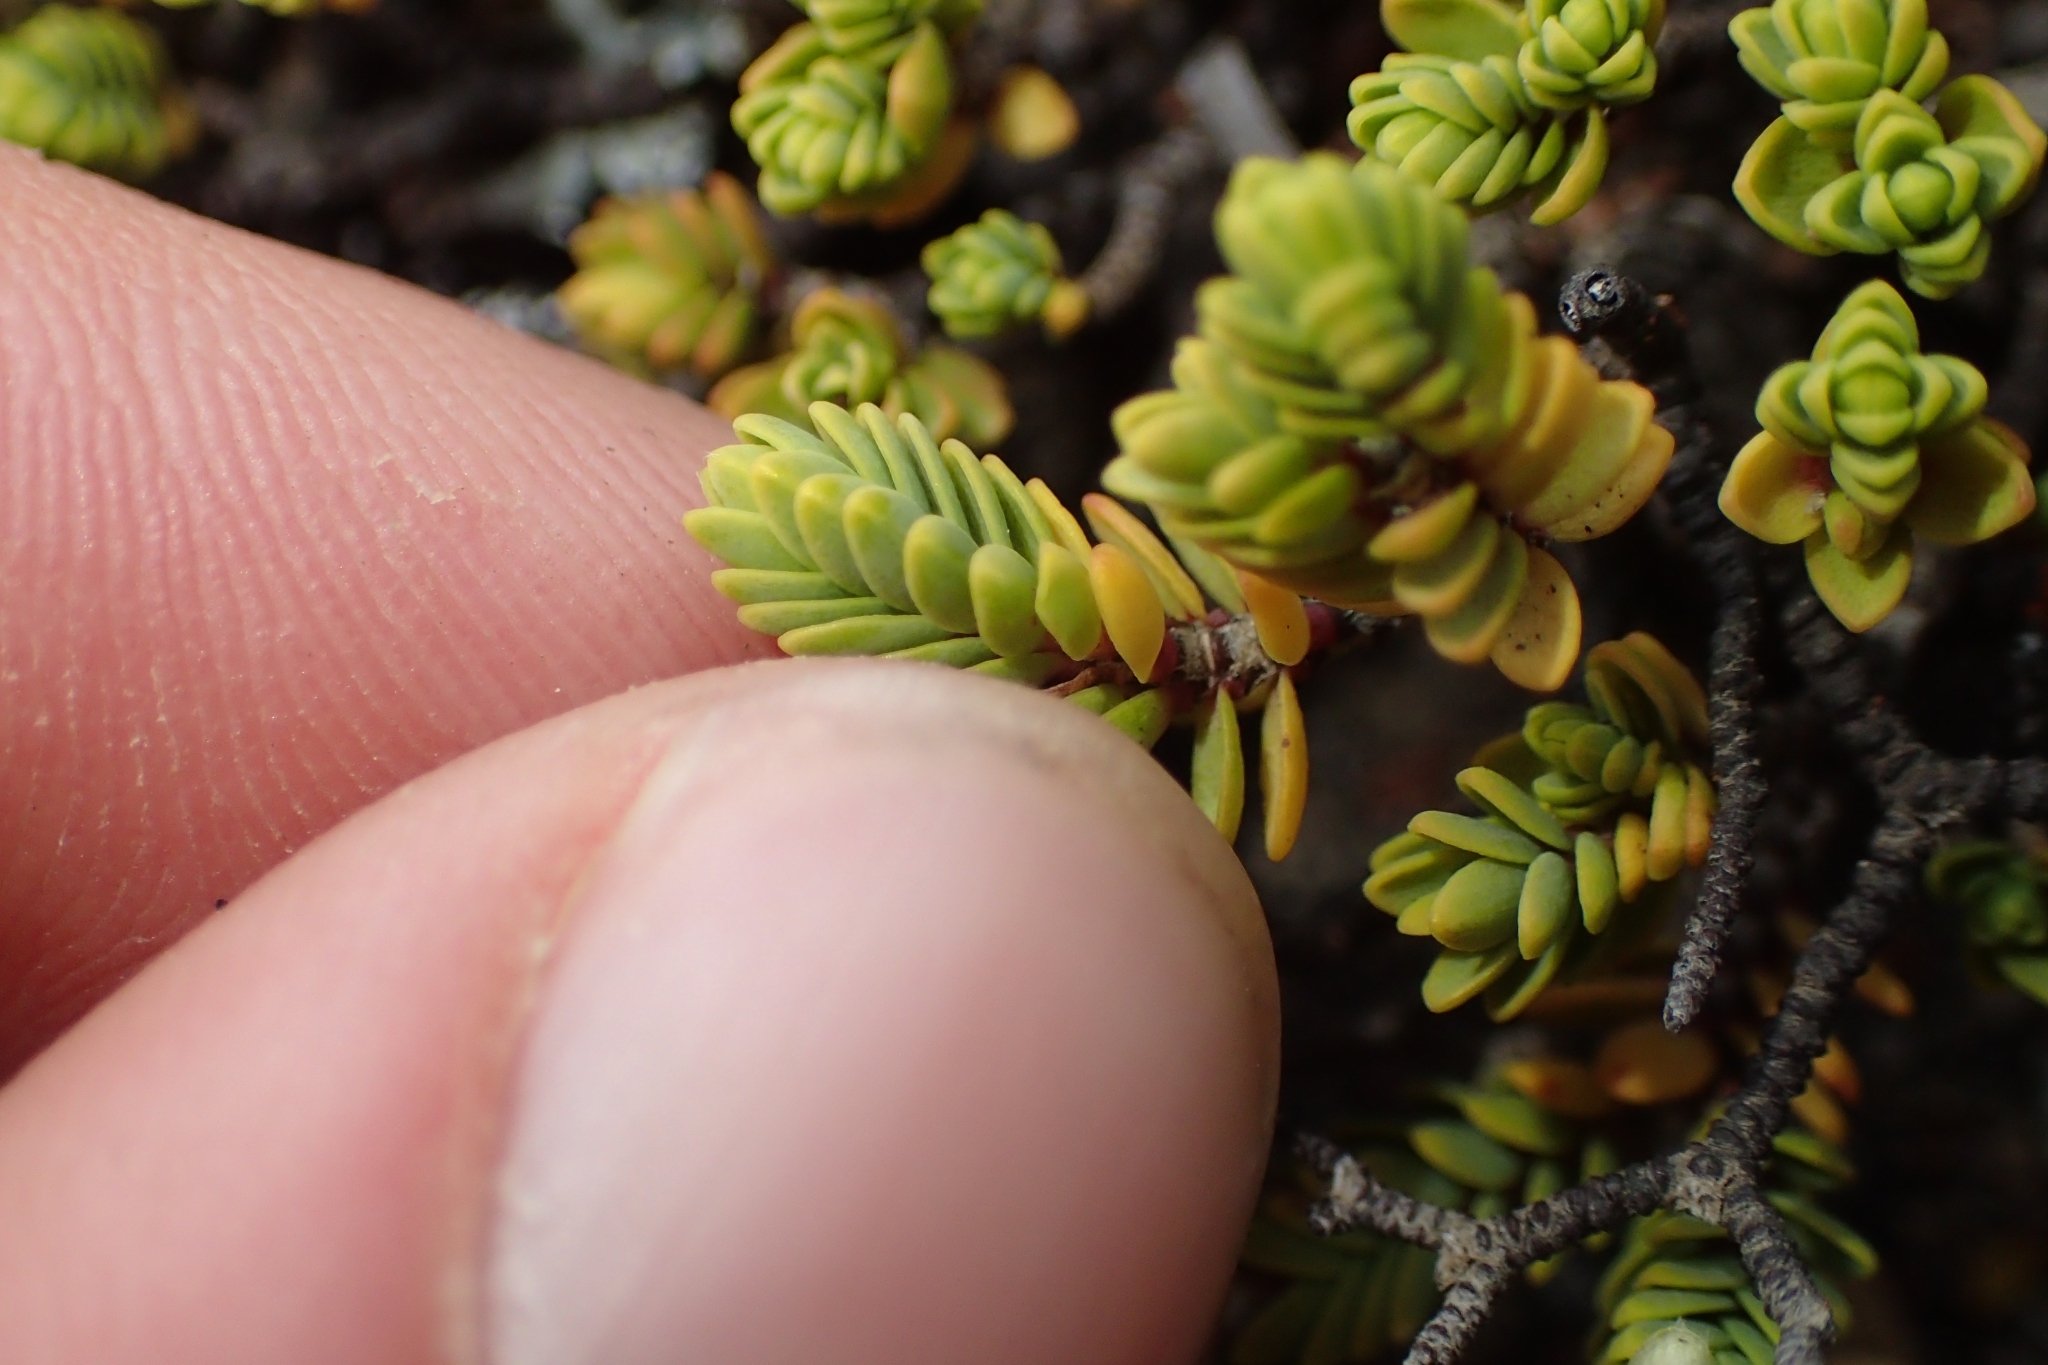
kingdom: Plantae
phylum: Tracheophyta
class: Magnoliopsida
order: Malvales
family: Thymelaeaceae
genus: Pimelea
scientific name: Pimelea microphylla
